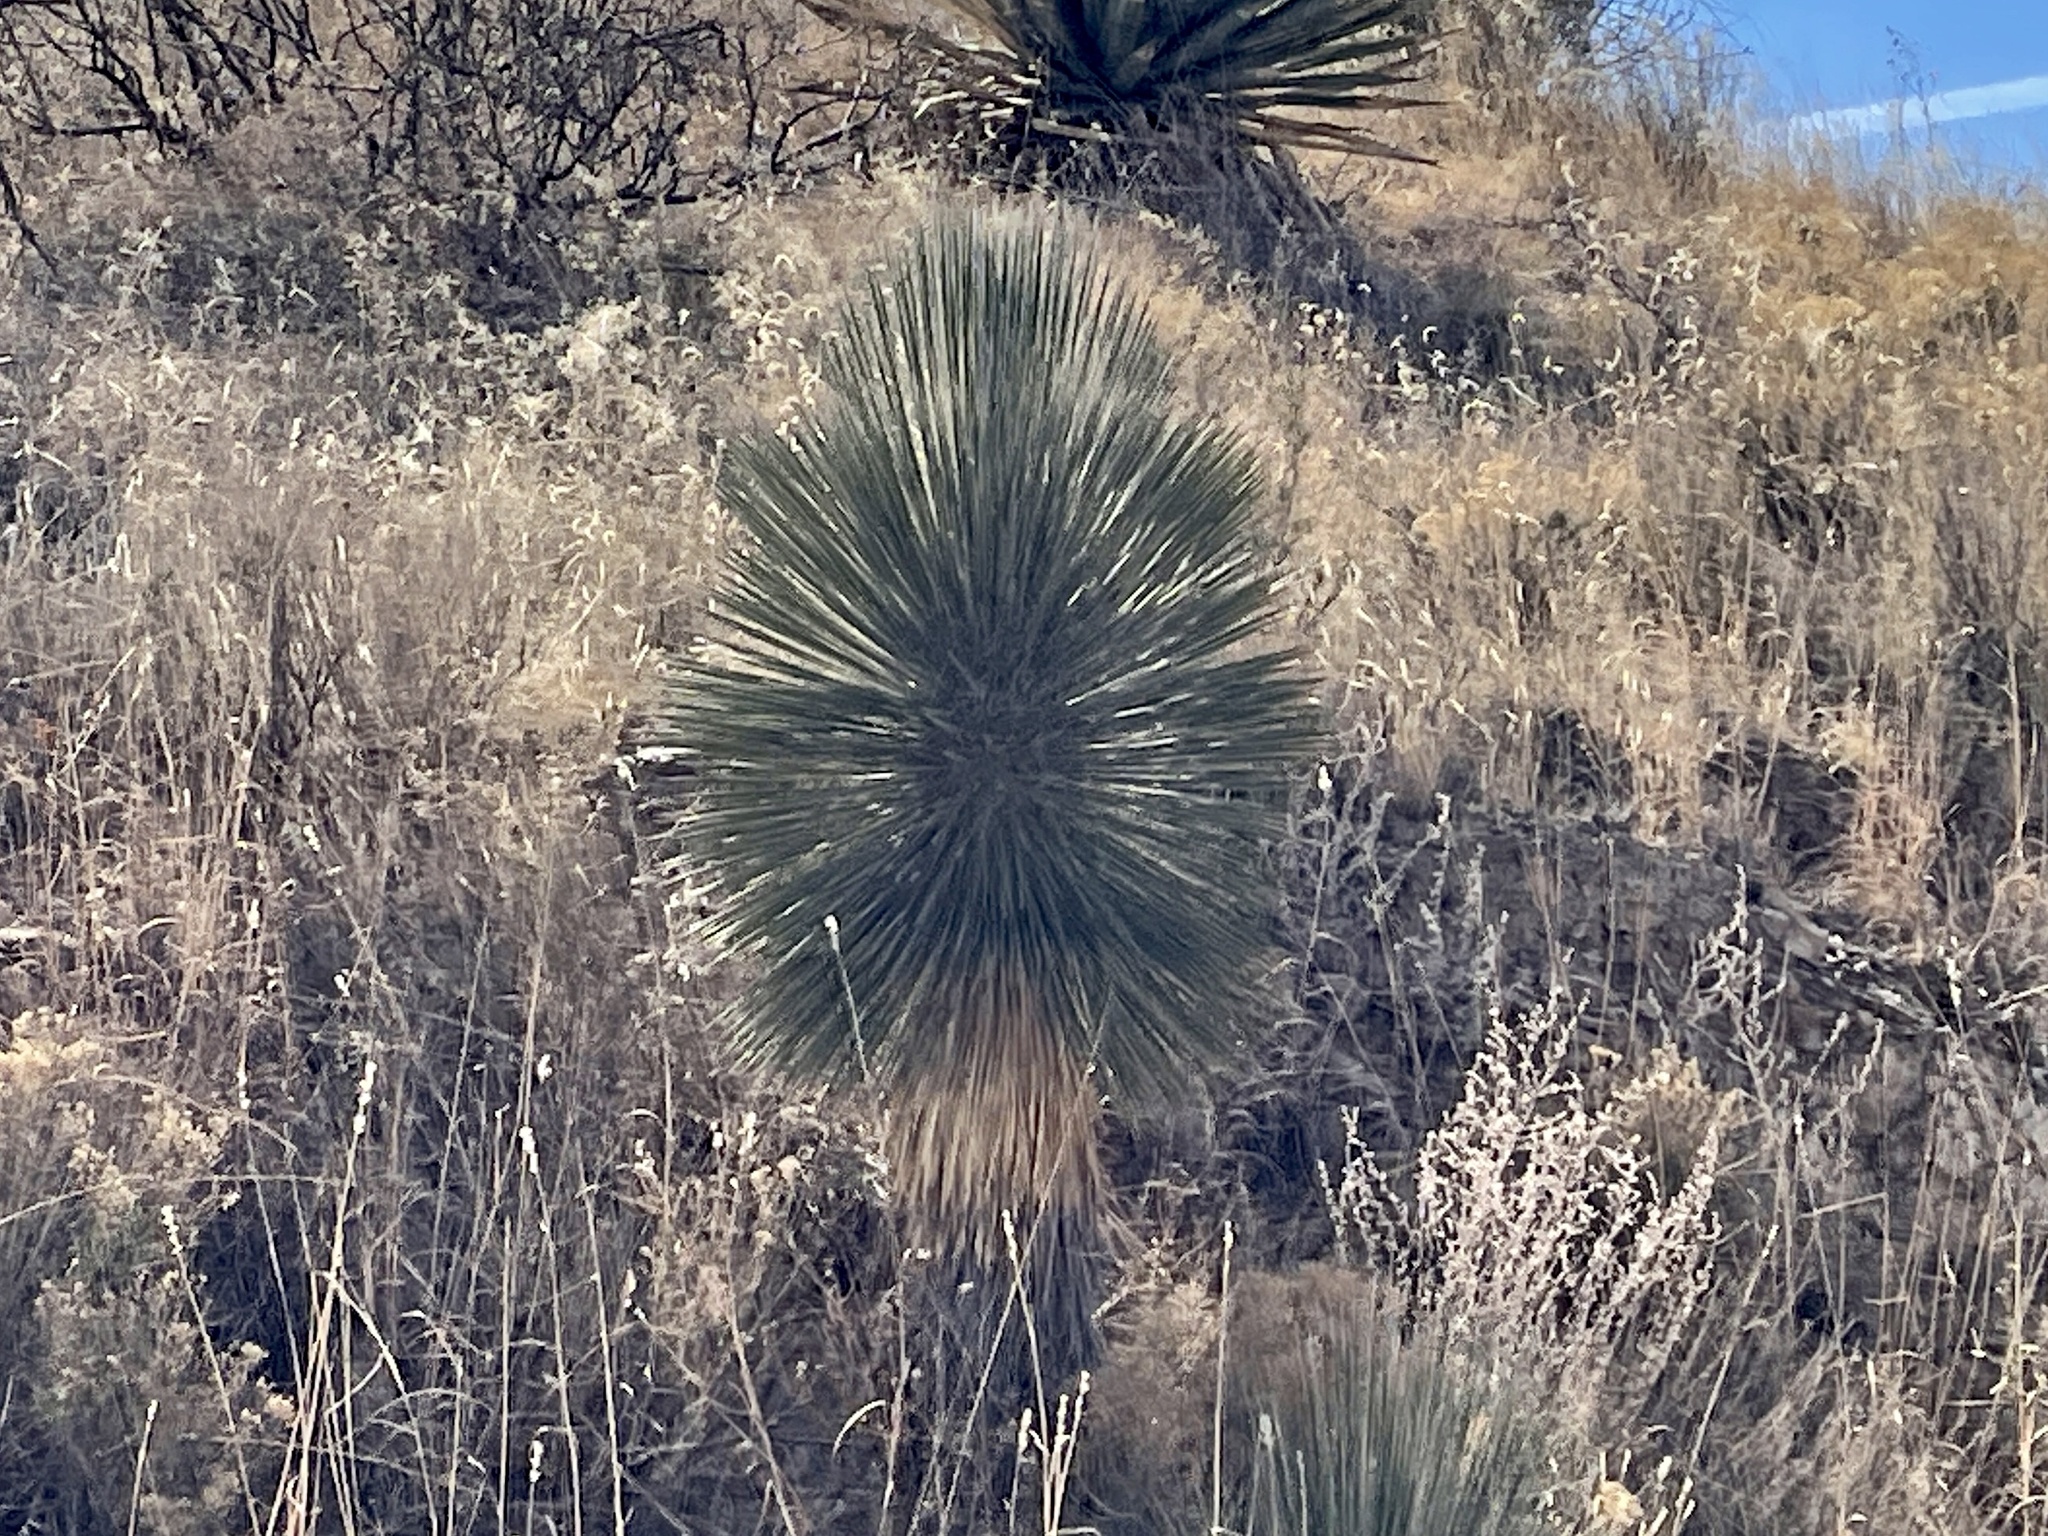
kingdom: Plantae
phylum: Tracheophyta
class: Liliopsida
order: Asparagales
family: Asparagaceae
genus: Yucca
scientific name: Yucca elata
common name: Palmella
